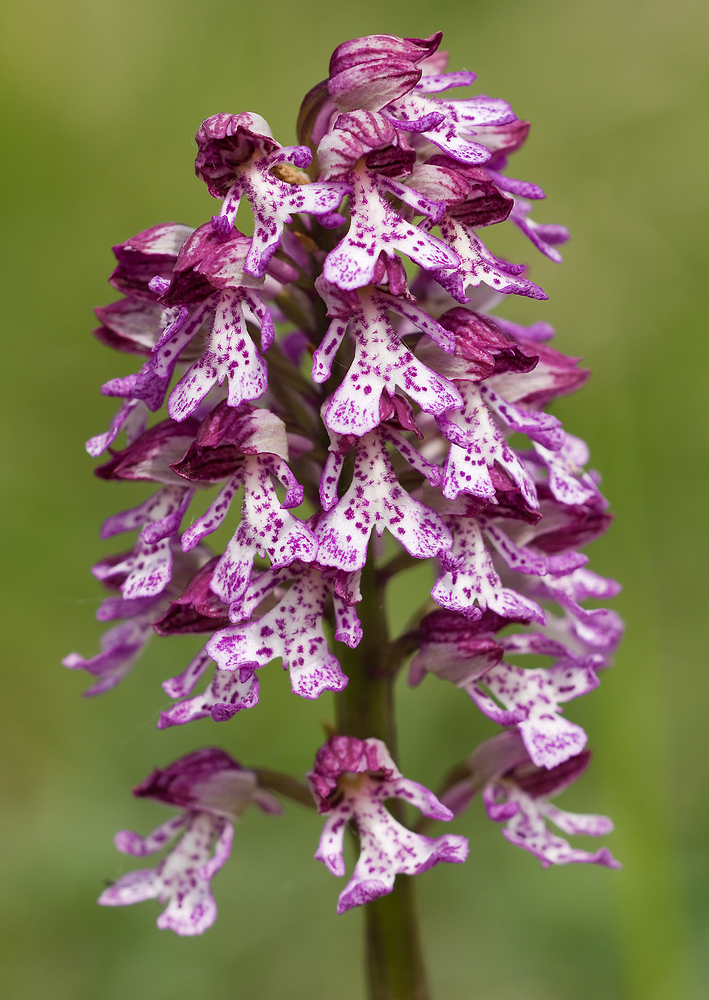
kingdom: Plantae
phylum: Tracheophyta
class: Liliopsida
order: Asparagales
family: Orchidaceae
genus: Orchis
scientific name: Orchis purpurea
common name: Lady orchid
